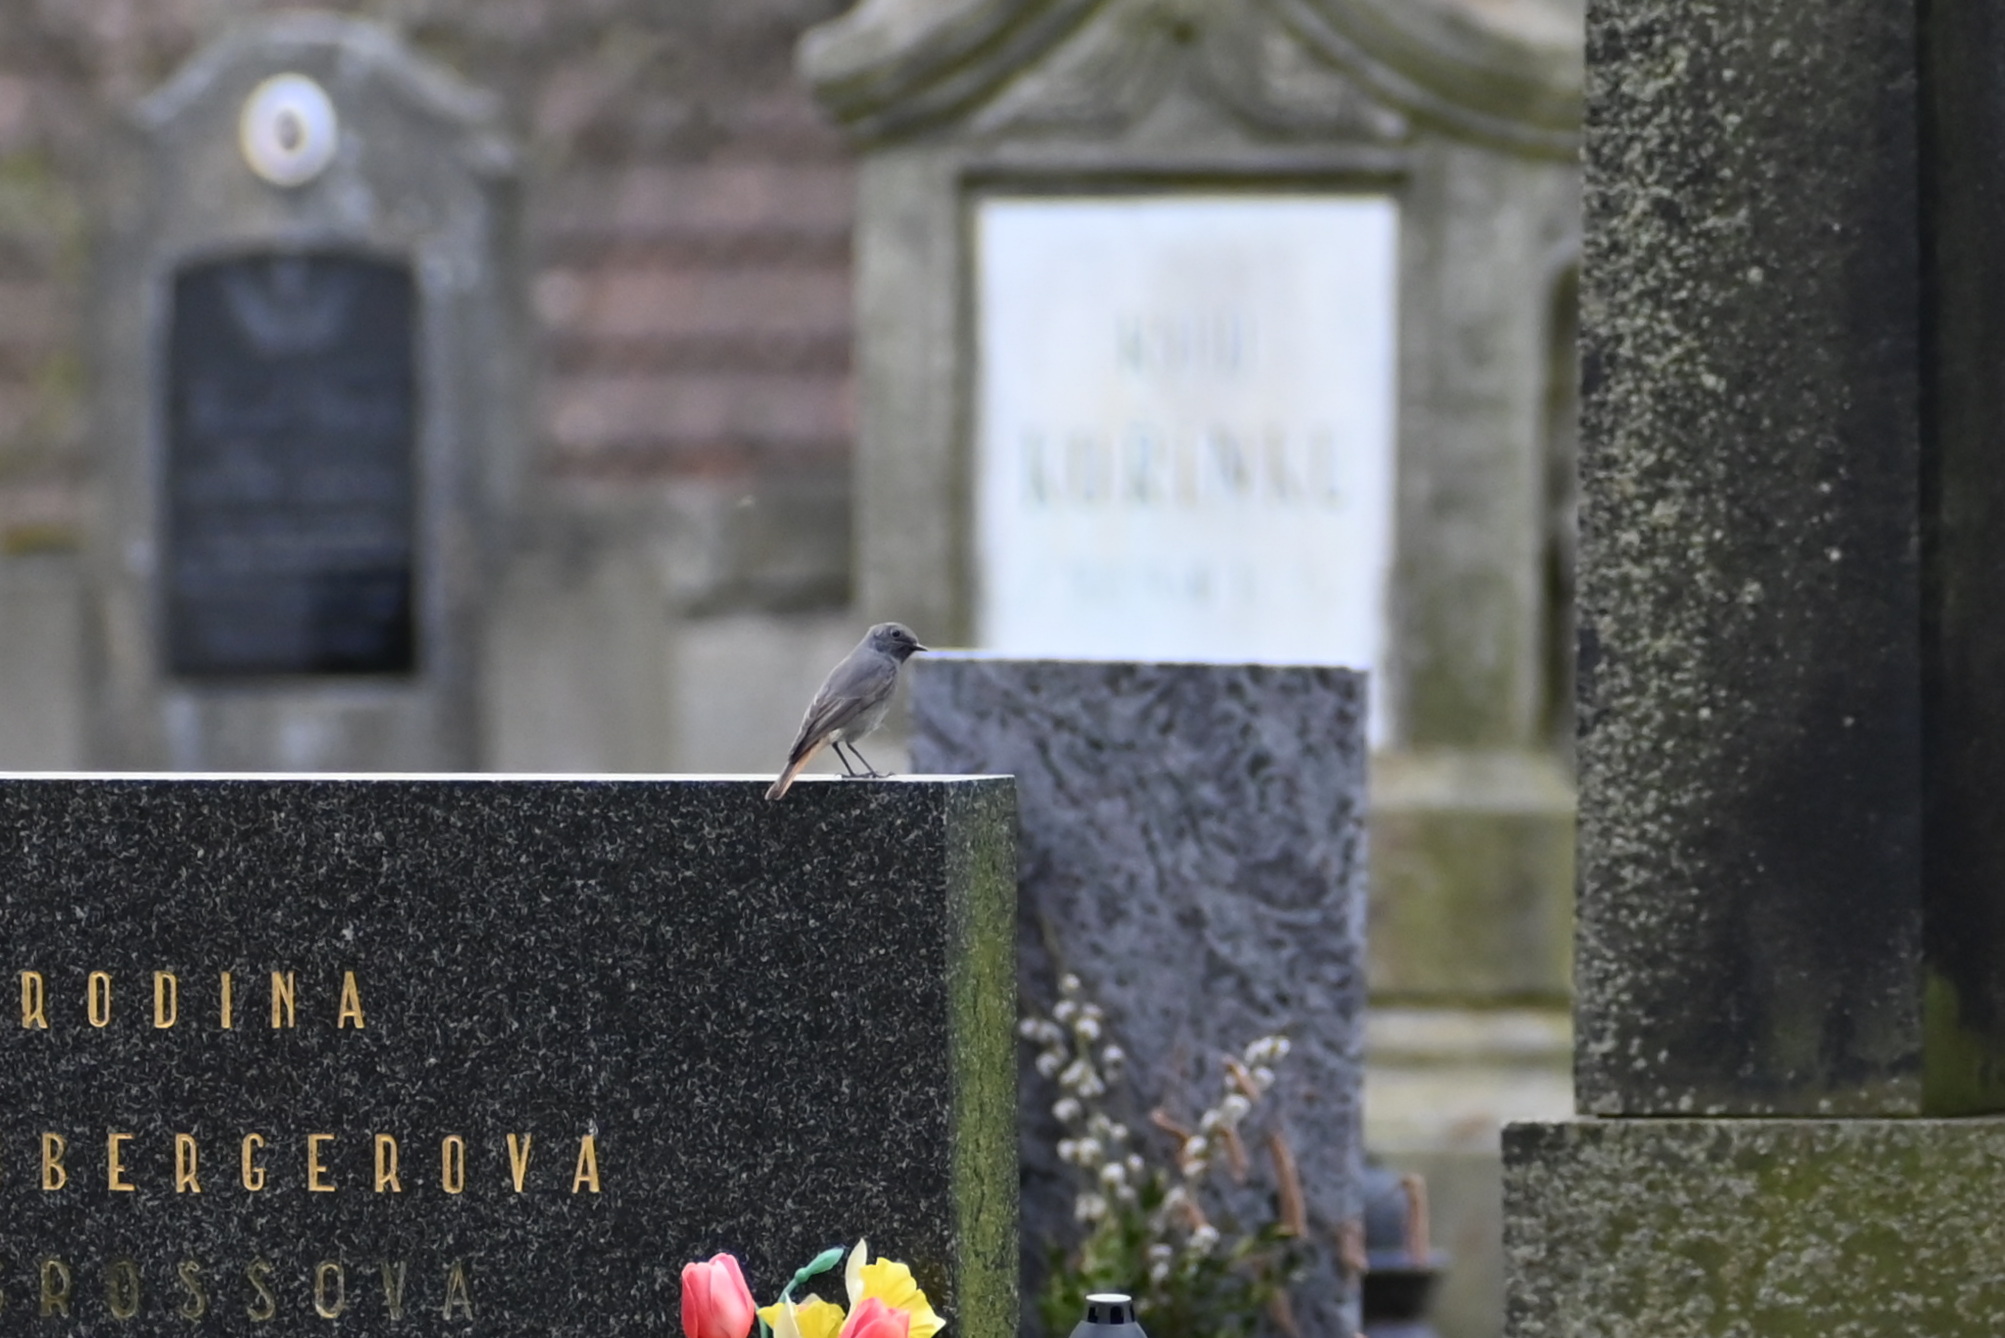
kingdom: Animalia
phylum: Chordata
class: Aves
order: Passeriformes
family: Muscicapidae
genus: Phoenicurus
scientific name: Phoenicurus ochruros
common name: Black redstart
